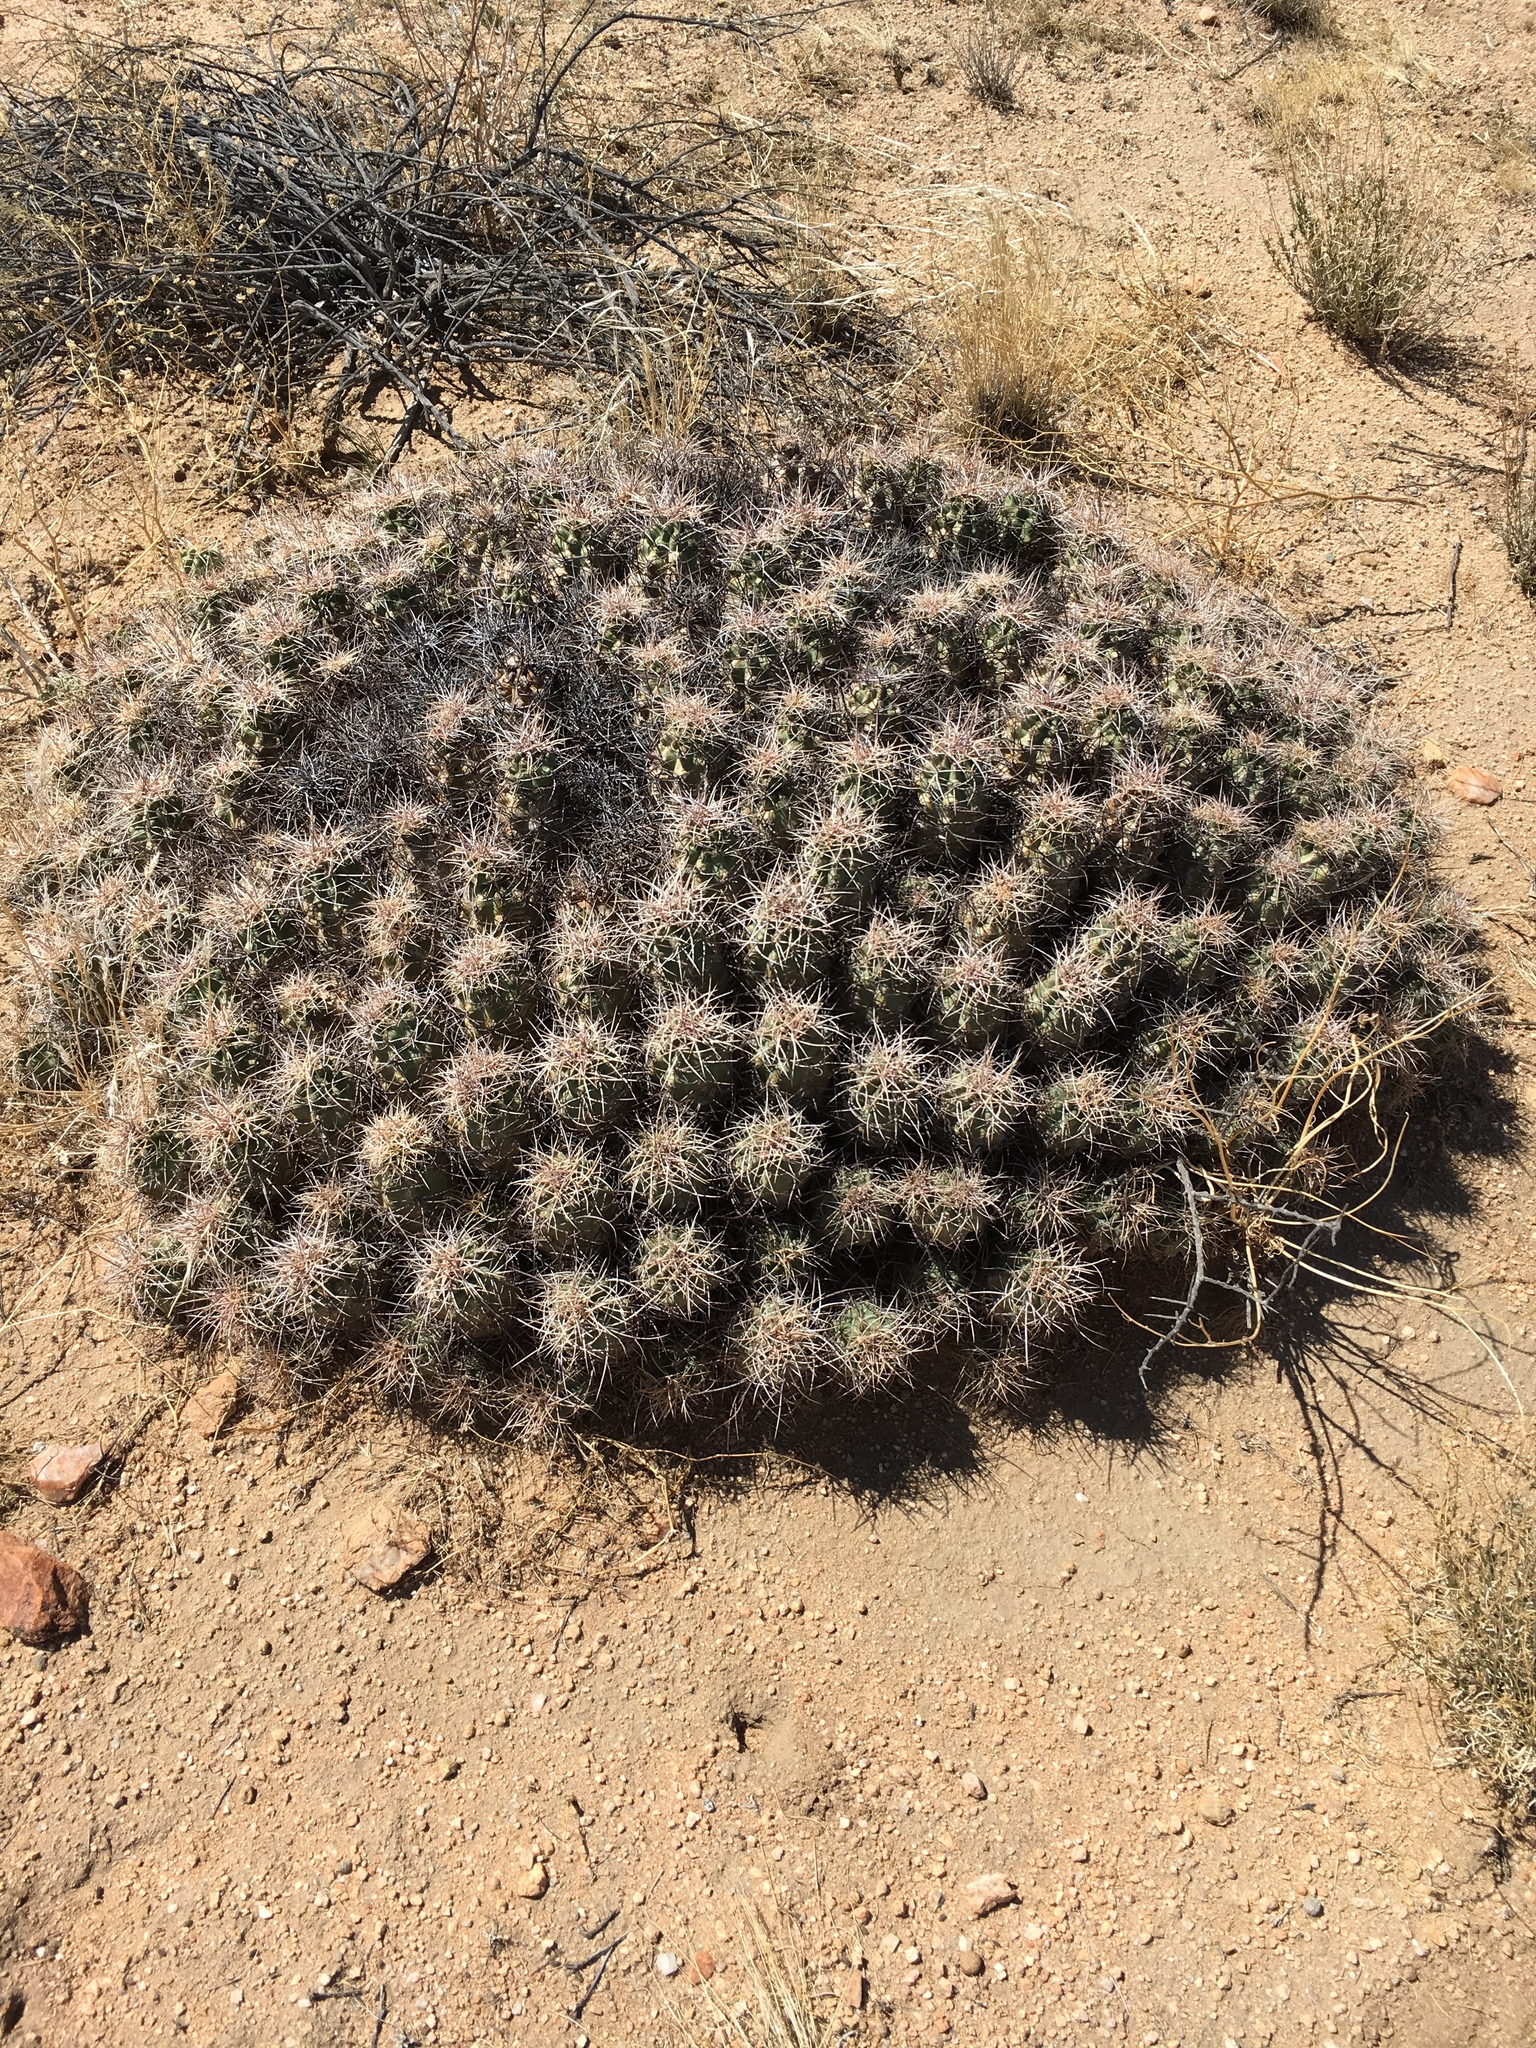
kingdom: Plantae
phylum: Tracheophyta
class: Magnoliopsida
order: Caryophyllales
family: Cactaceae
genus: Echinocereus
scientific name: Echinocereus triglochidiatus
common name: Claretcup hedgehog
